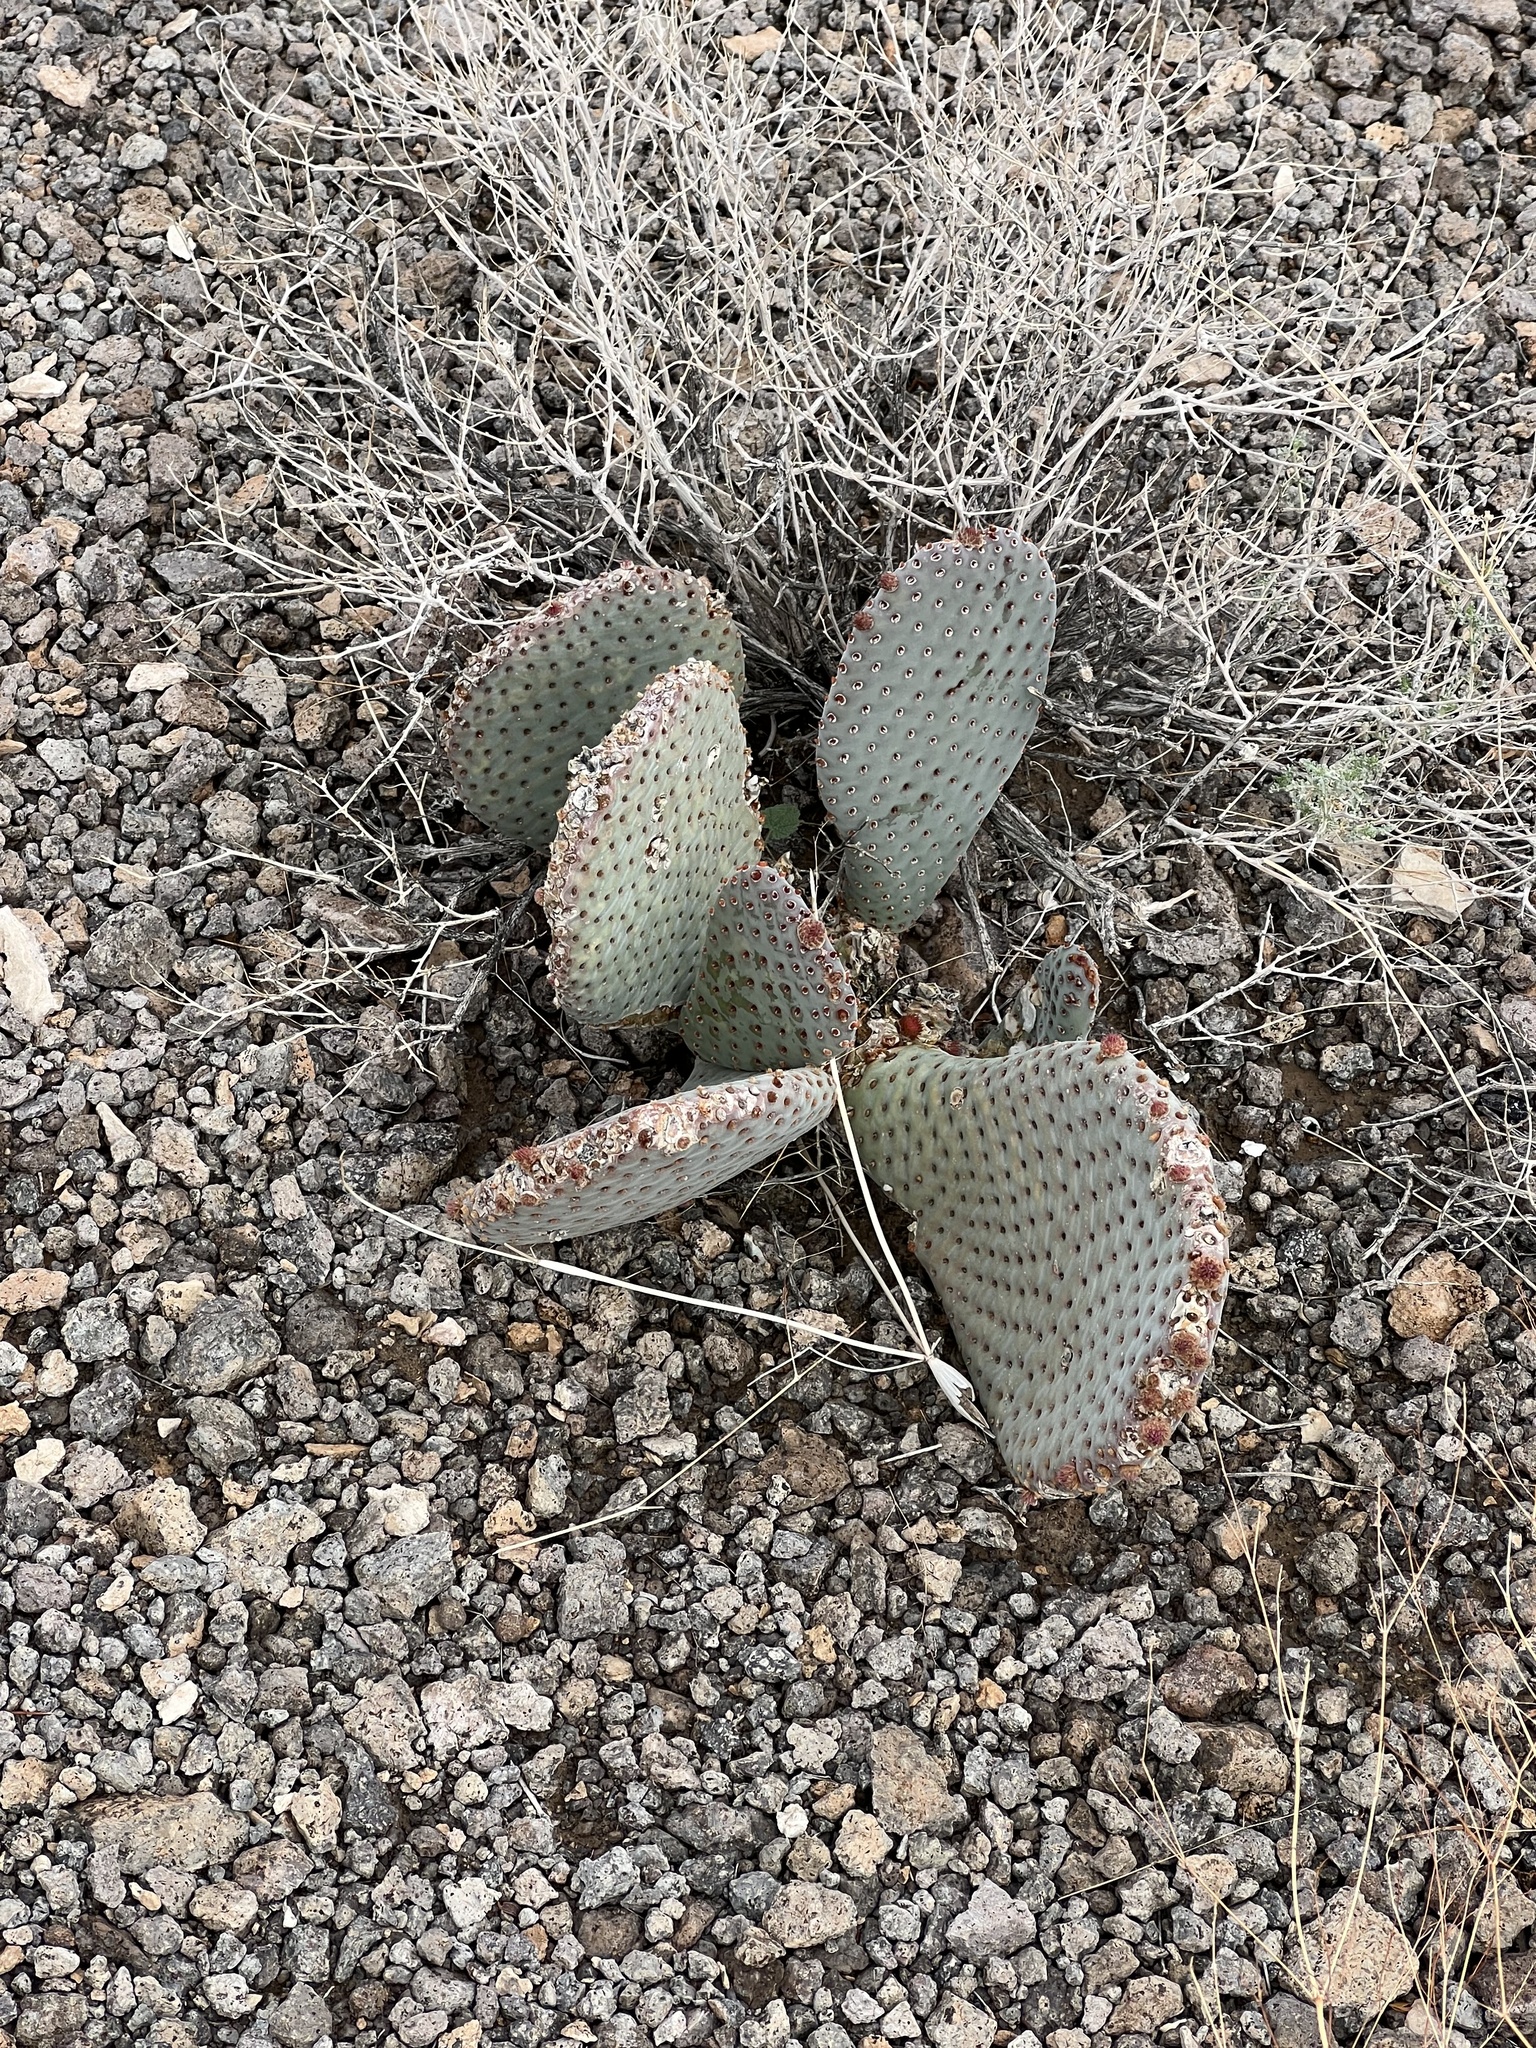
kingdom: Plantae
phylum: Tracheophyta
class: Magnoliopsida
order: Caryophyllales
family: Cactaceae
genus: Opuntia
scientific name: Opuntia basilaris
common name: Beavertail prickly-pear
